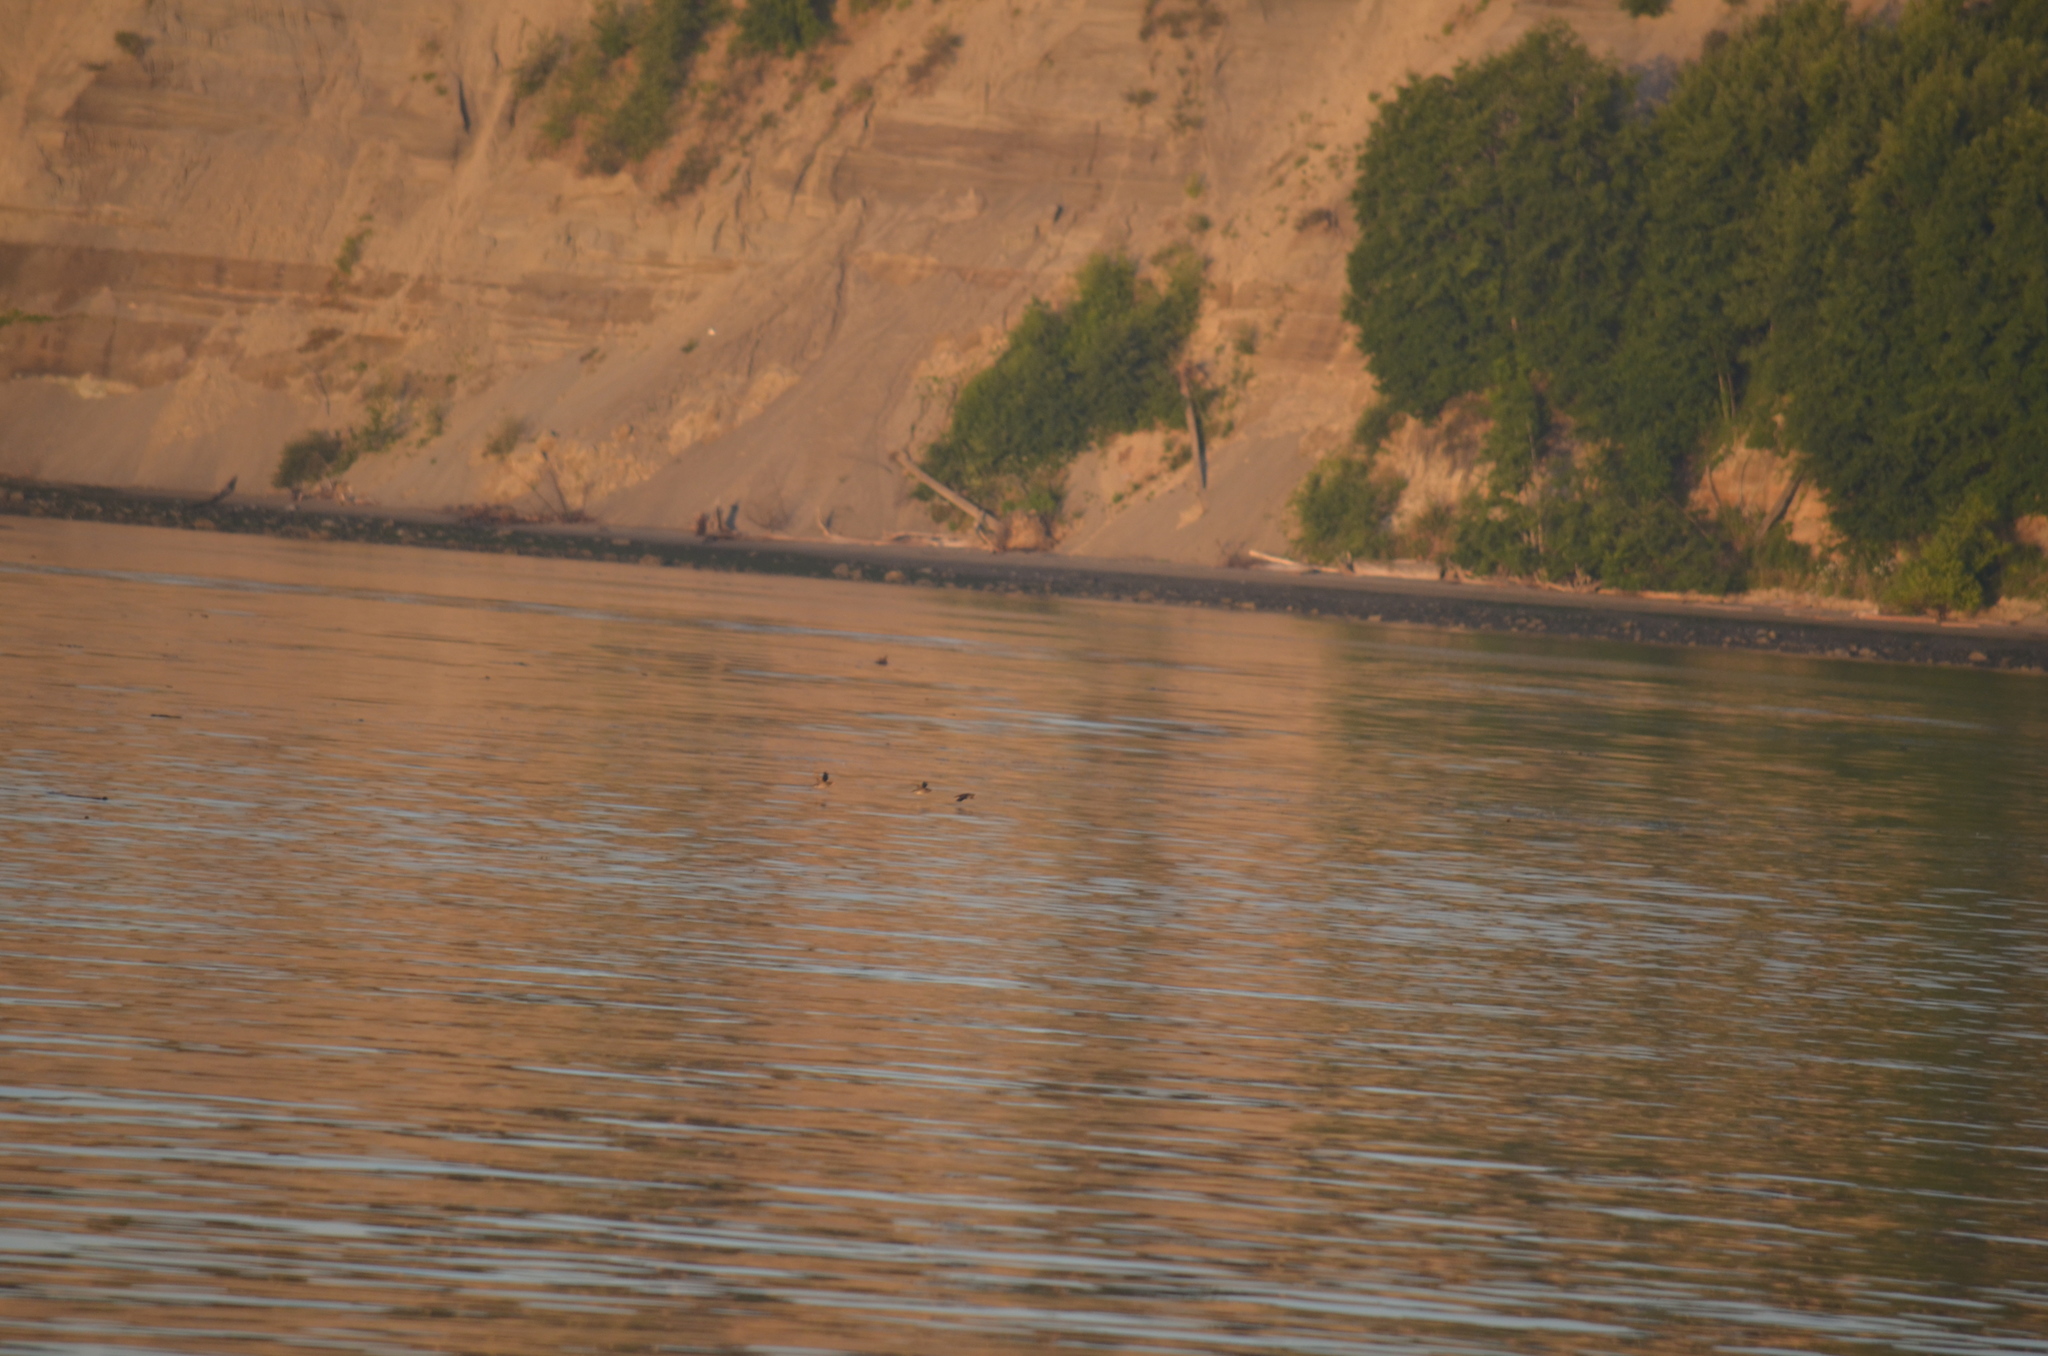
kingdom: Animalia
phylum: Chordata
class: Aves
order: Charadriiformes
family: Alcidae
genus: Cerorhinca
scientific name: Cerorhinca monocerata
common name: Rhinoceros auklet
